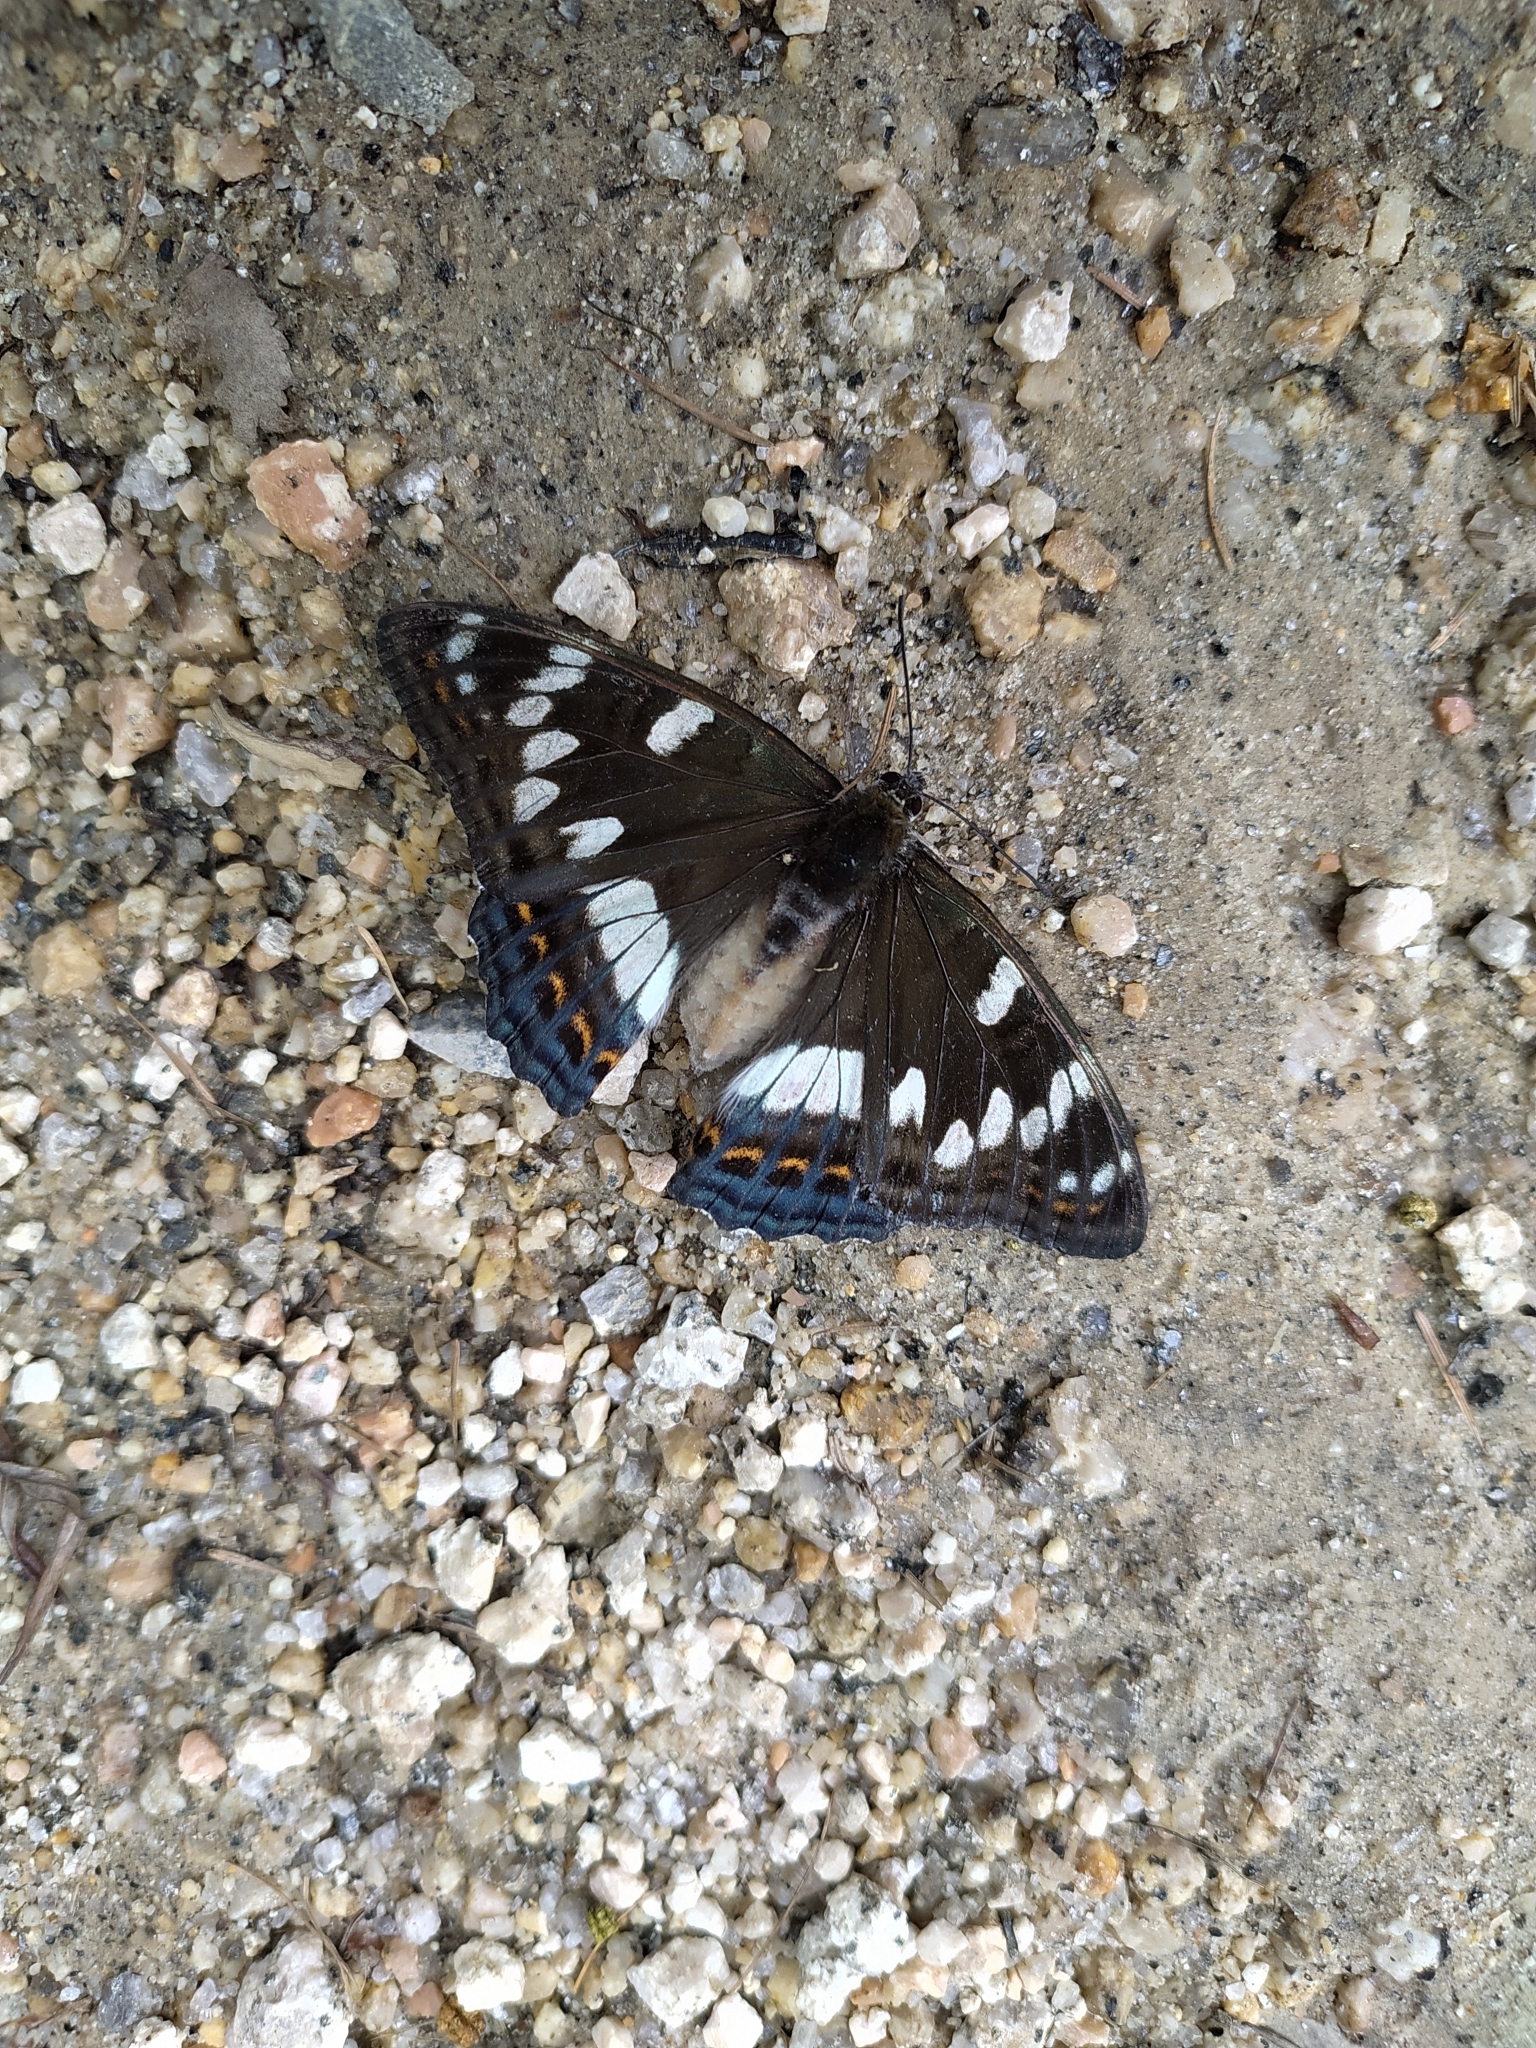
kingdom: Animalia
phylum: Arthropoda
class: Insecta
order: Lepidoptera
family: Nymphalidae
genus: Limenitis
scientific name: Limenitis populi
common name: Poplar admiral
